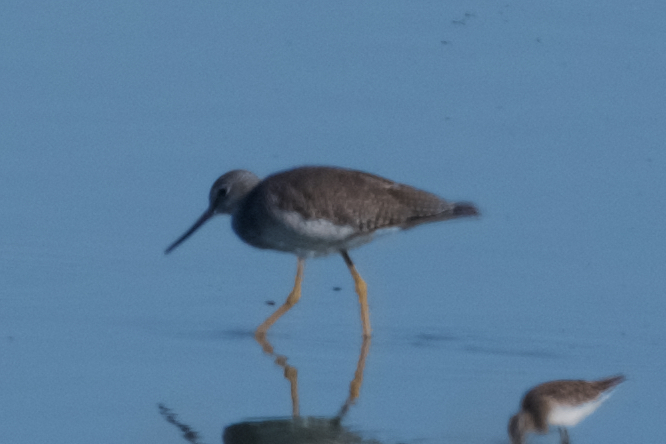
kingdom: Animalia
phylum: Chordata
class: Aves
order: Charadriiformes
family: Scolopacidae
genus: Tringa
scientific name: Tringa melanoleuca
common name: Greater yellowlegs
